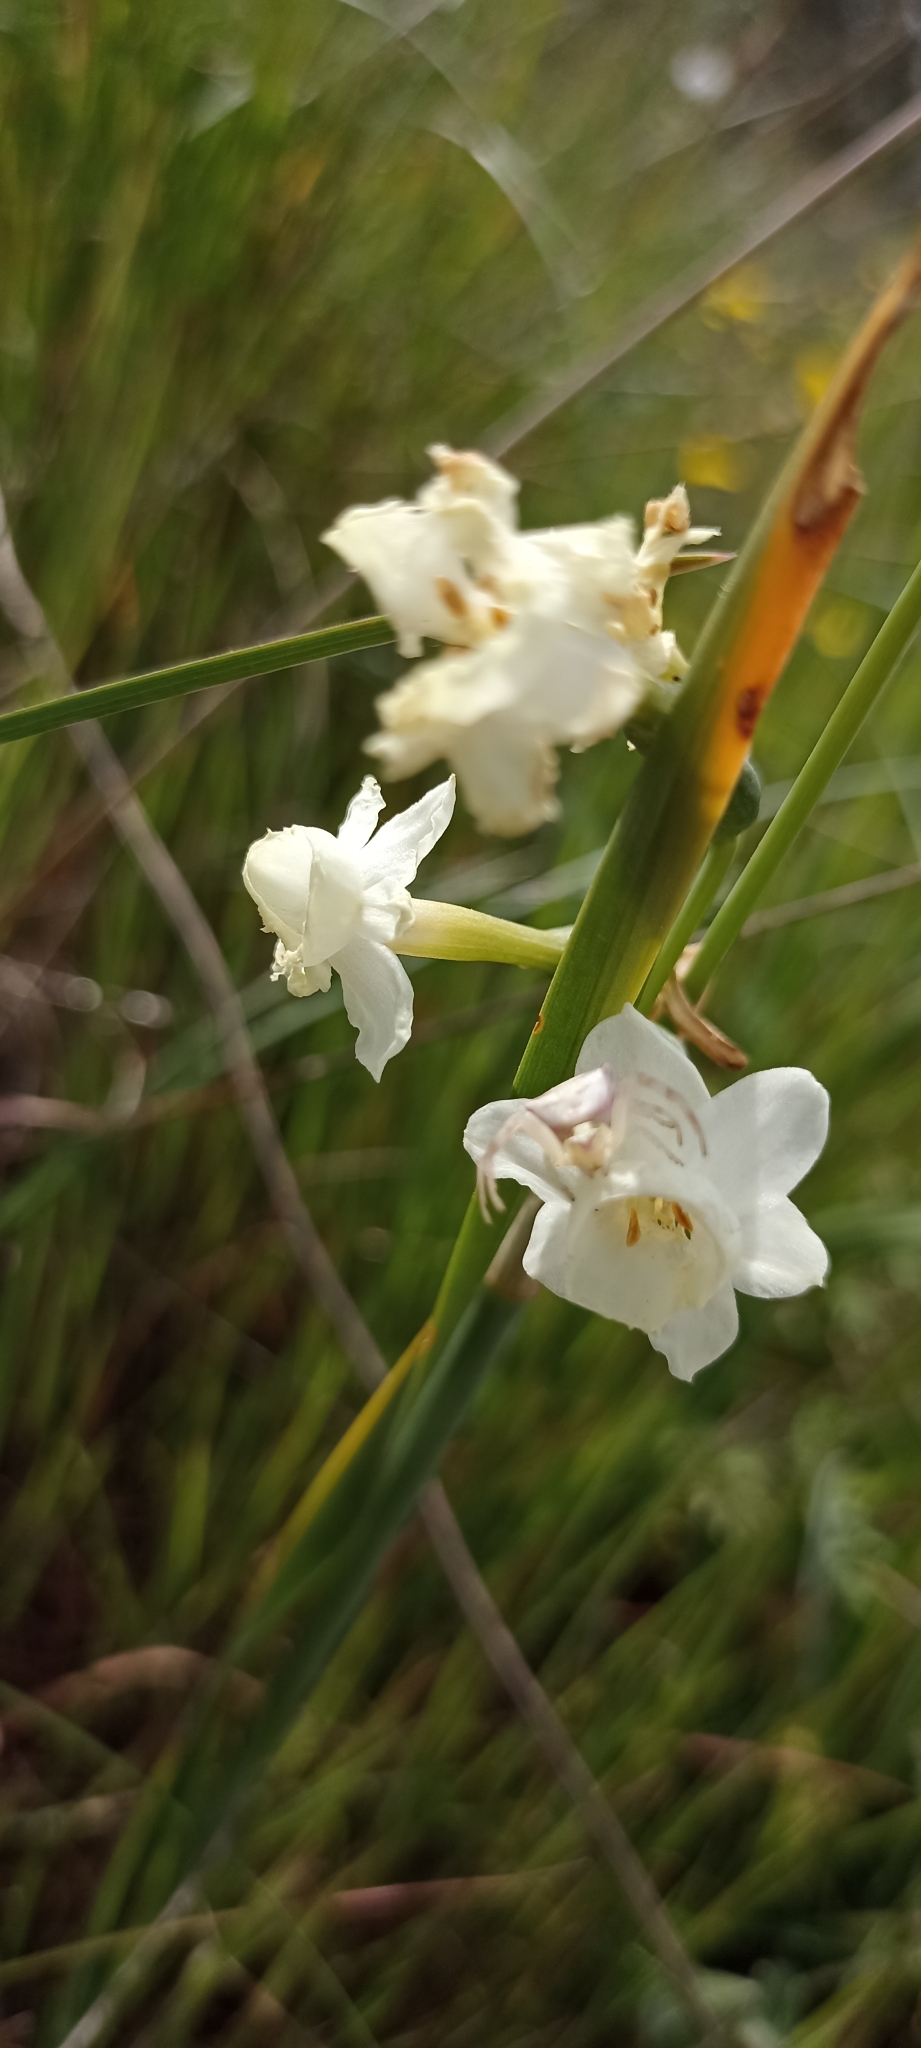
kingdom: Animalia
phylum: Arthropoda
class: Arachnida
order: Araneae
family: Thomisidae
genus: Thomisus
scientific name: Thomisus onustus
